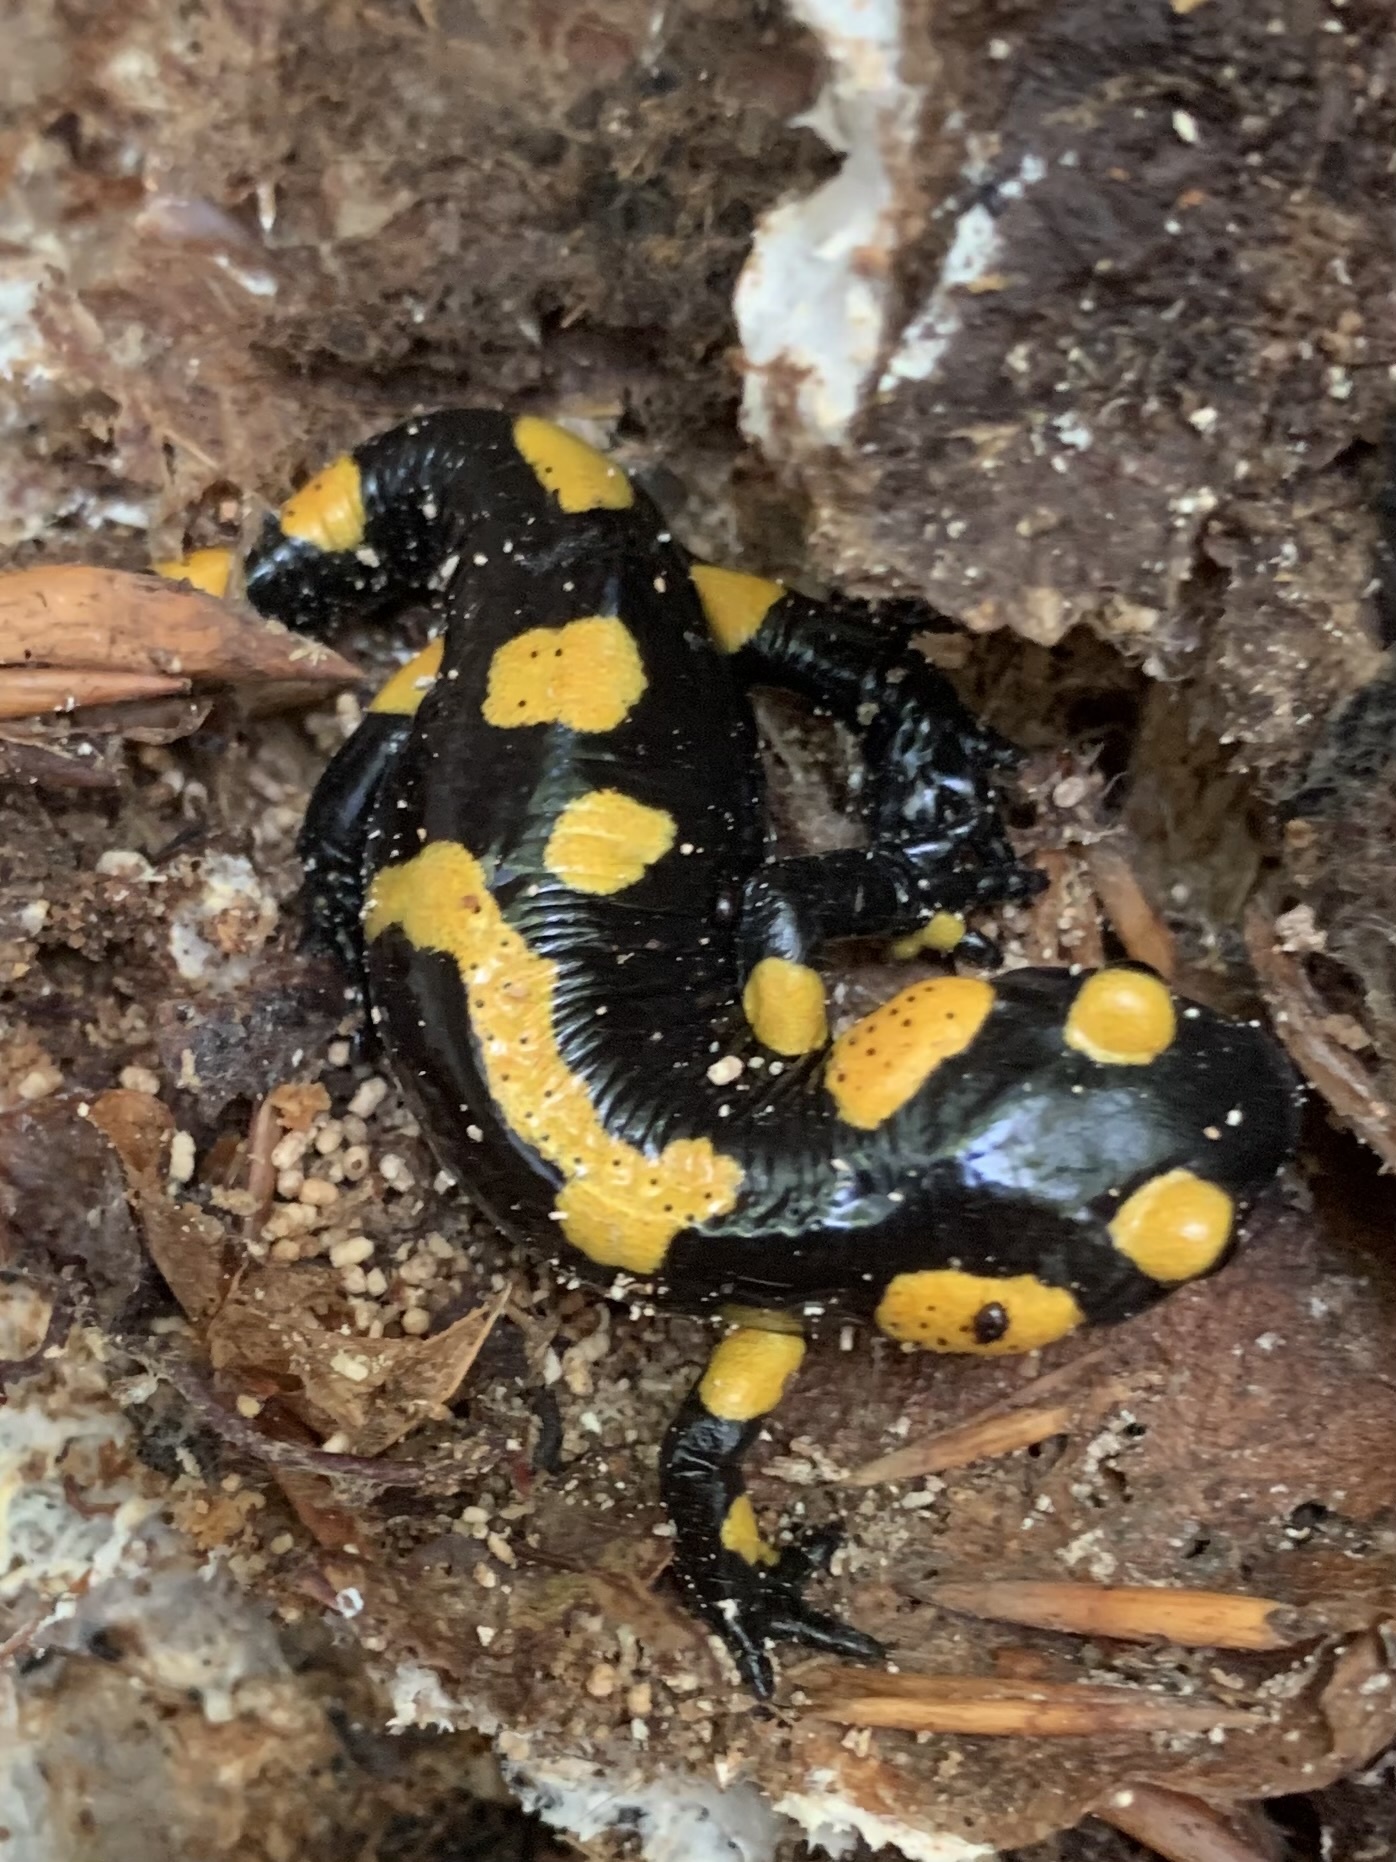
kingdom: Animalia
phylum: Chordata
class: Amphibia
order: Caudata
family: Salamandridae
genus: Salamandra
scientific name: Salamandra salamandra
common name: Fire salamander
